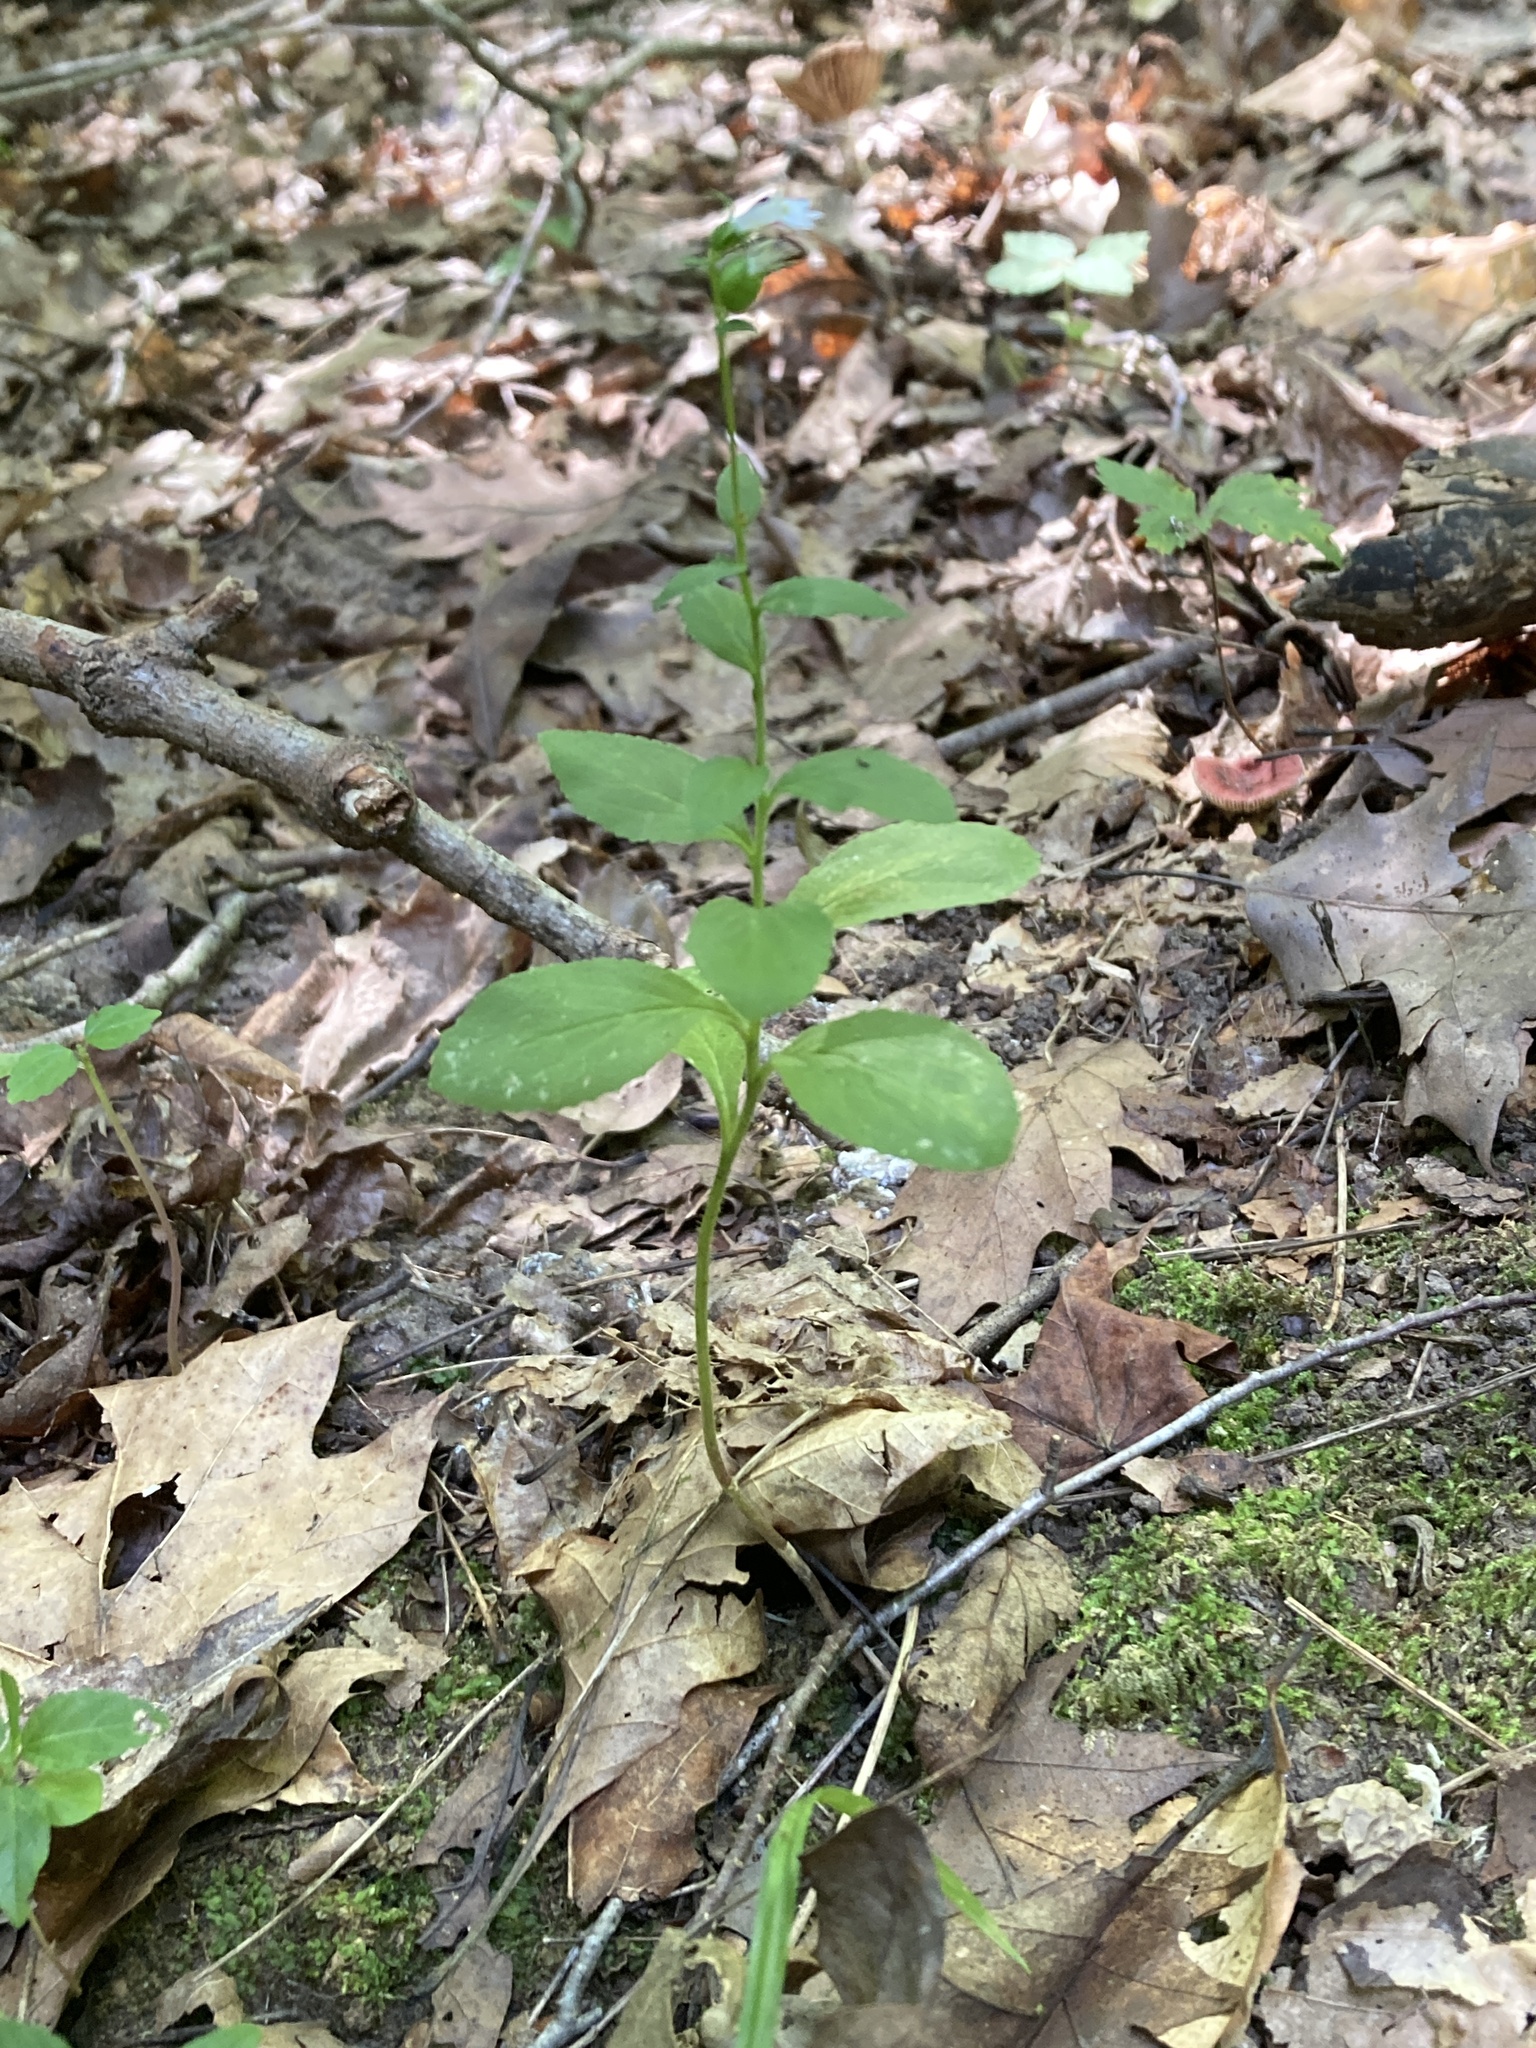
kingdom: Plantae
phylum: Tracheophyta
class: Magnoliopsida
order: Asterales
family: Campanulaceae
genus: Lobelia
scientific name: Lobelia inflata
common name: Indian tobacco
